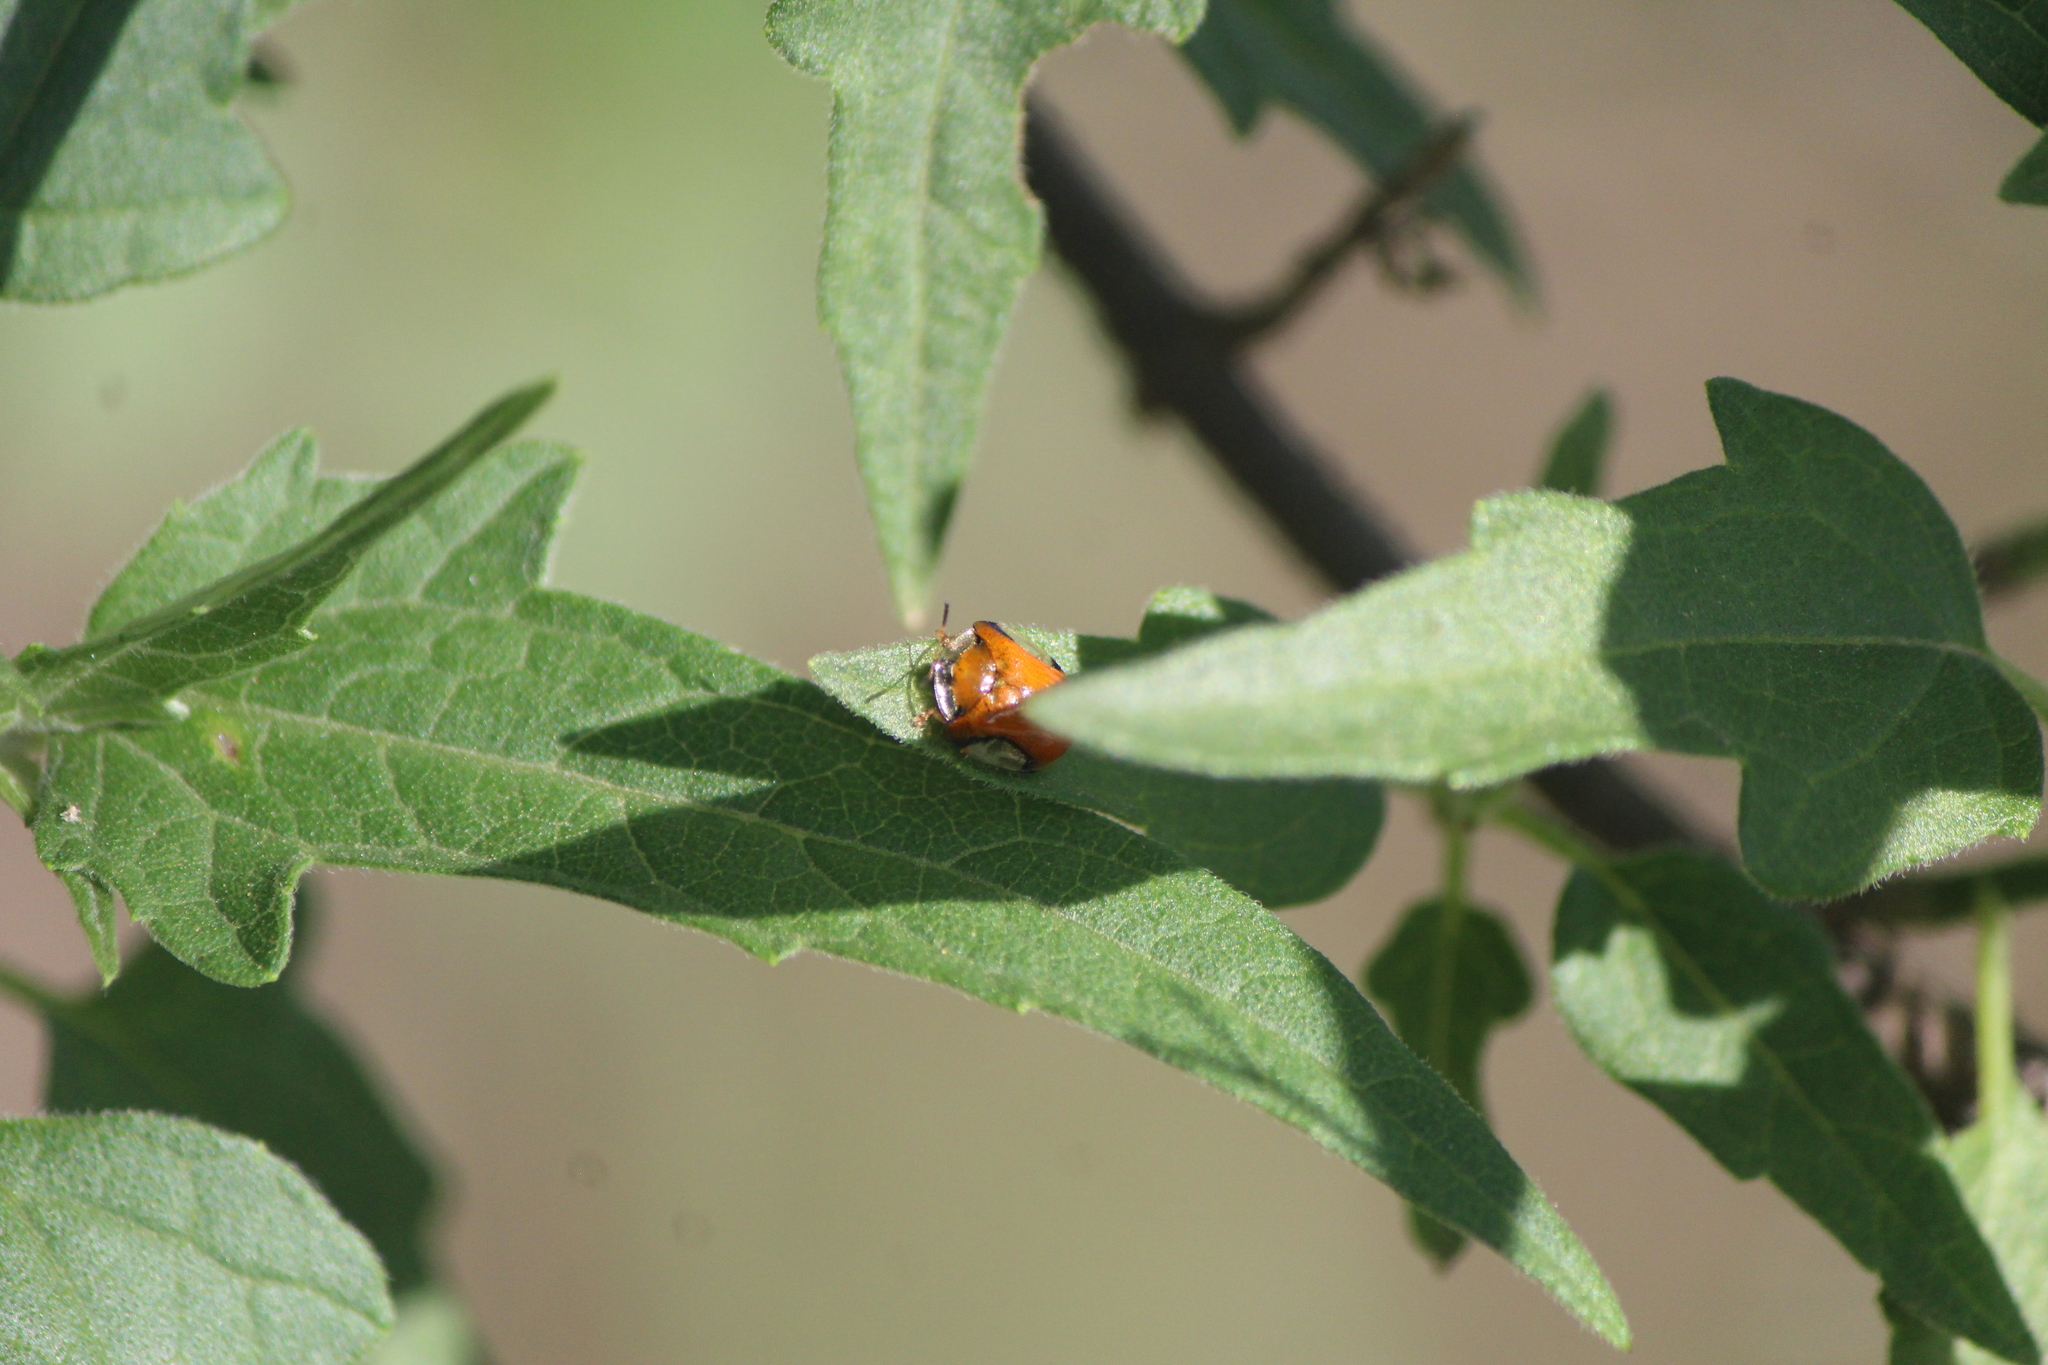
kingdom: Animalia
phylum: Arthropoda
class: Insecta
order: Coleoptera
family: Chrysomelidae
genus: Charidotella
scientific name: Charidotella emarginata
